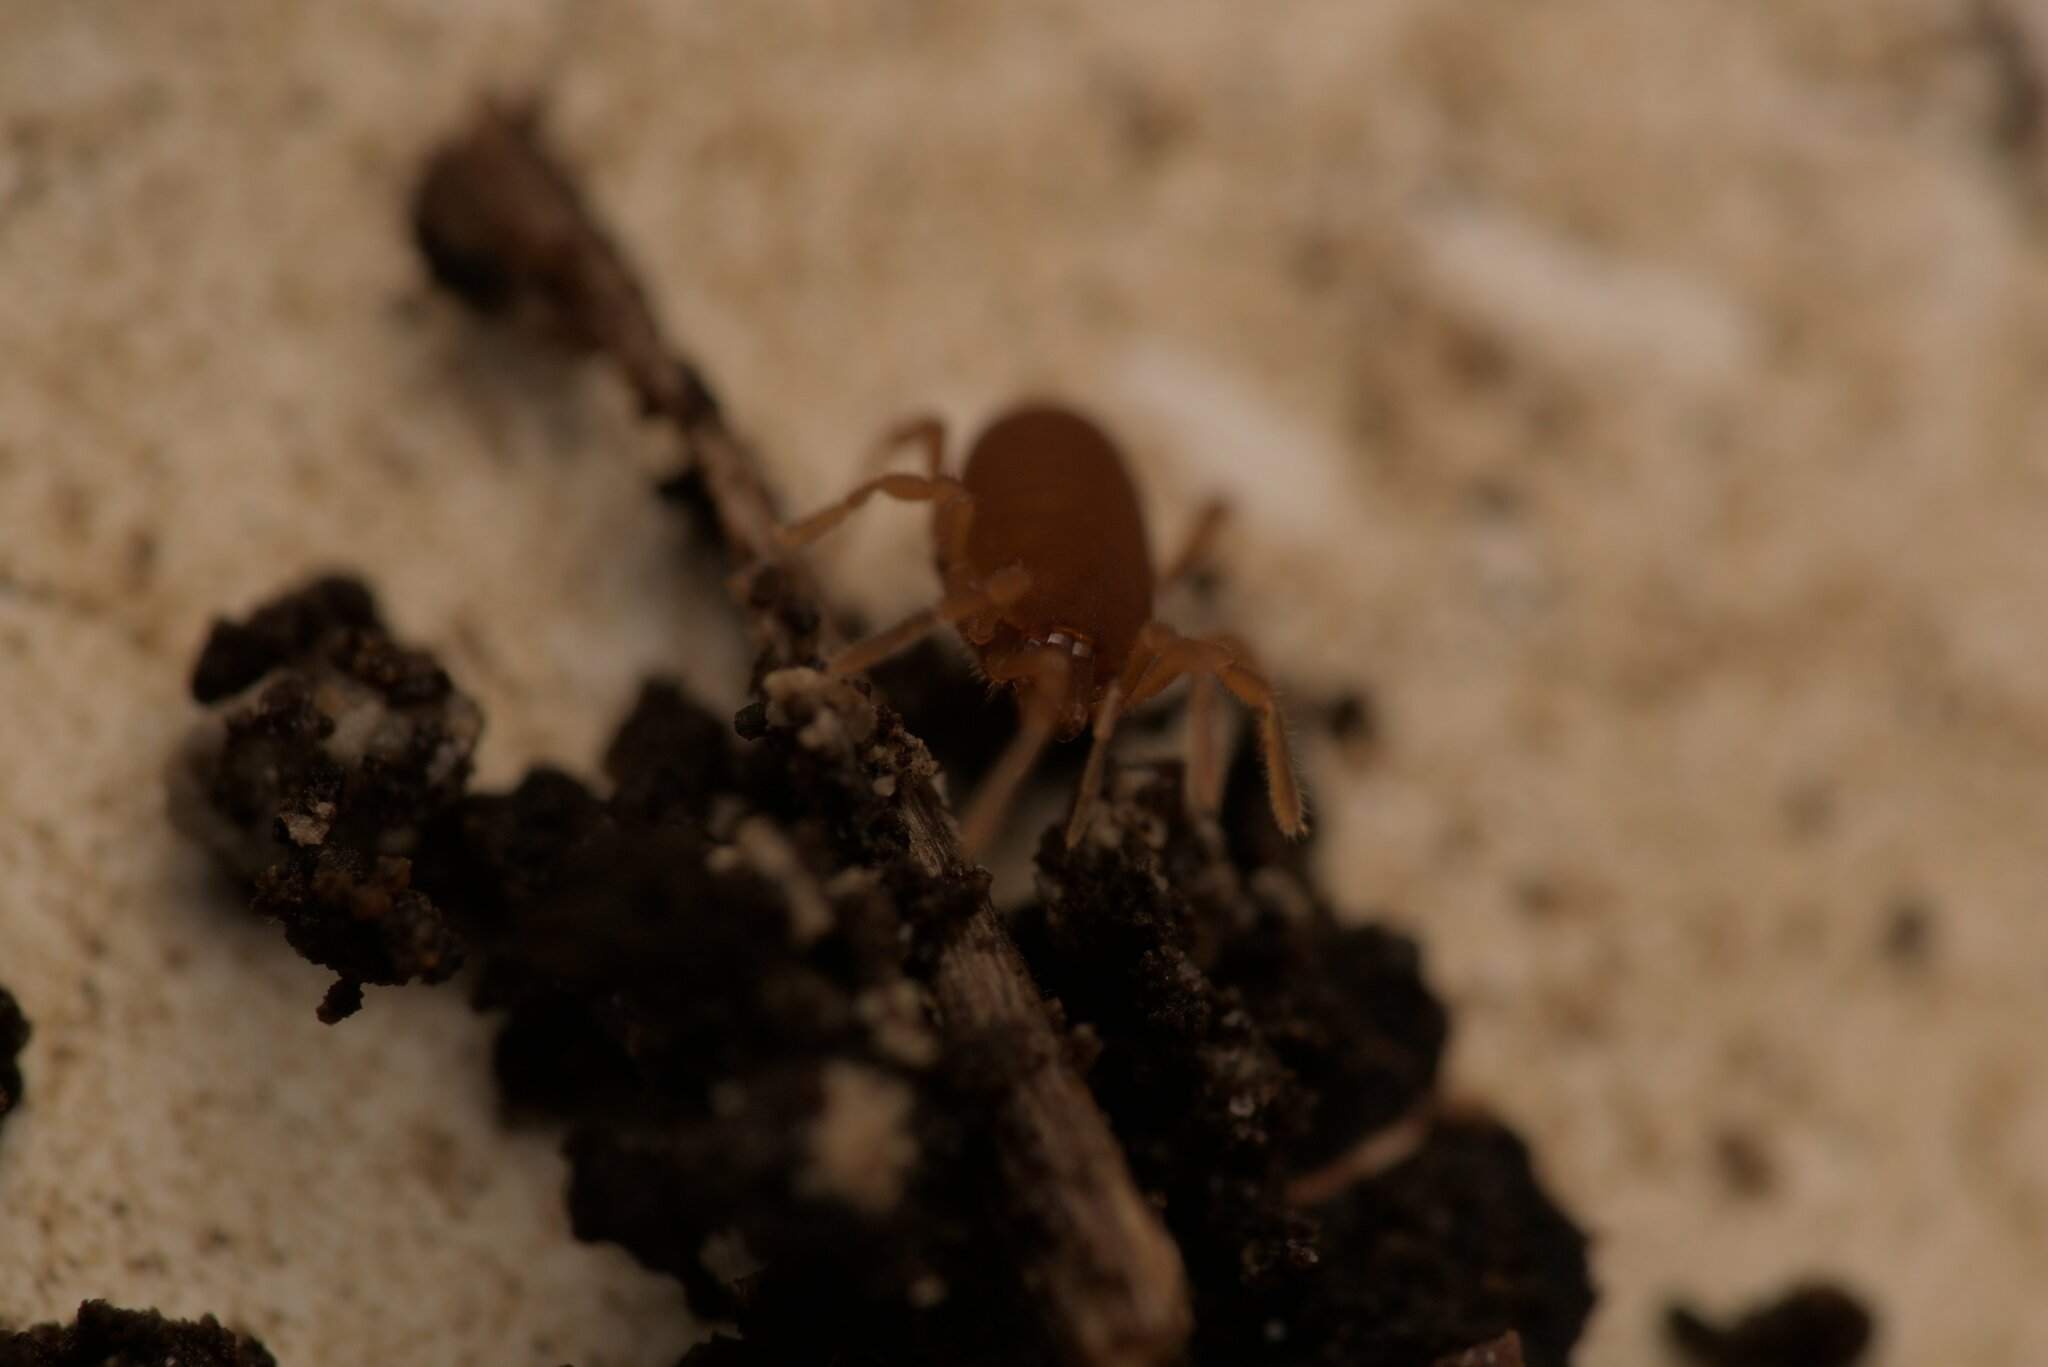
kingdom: Animalia
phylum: Arthropoda
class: Arachnida
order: Opiliones
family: Sironidae
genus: Siro
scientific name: Siro rubens
